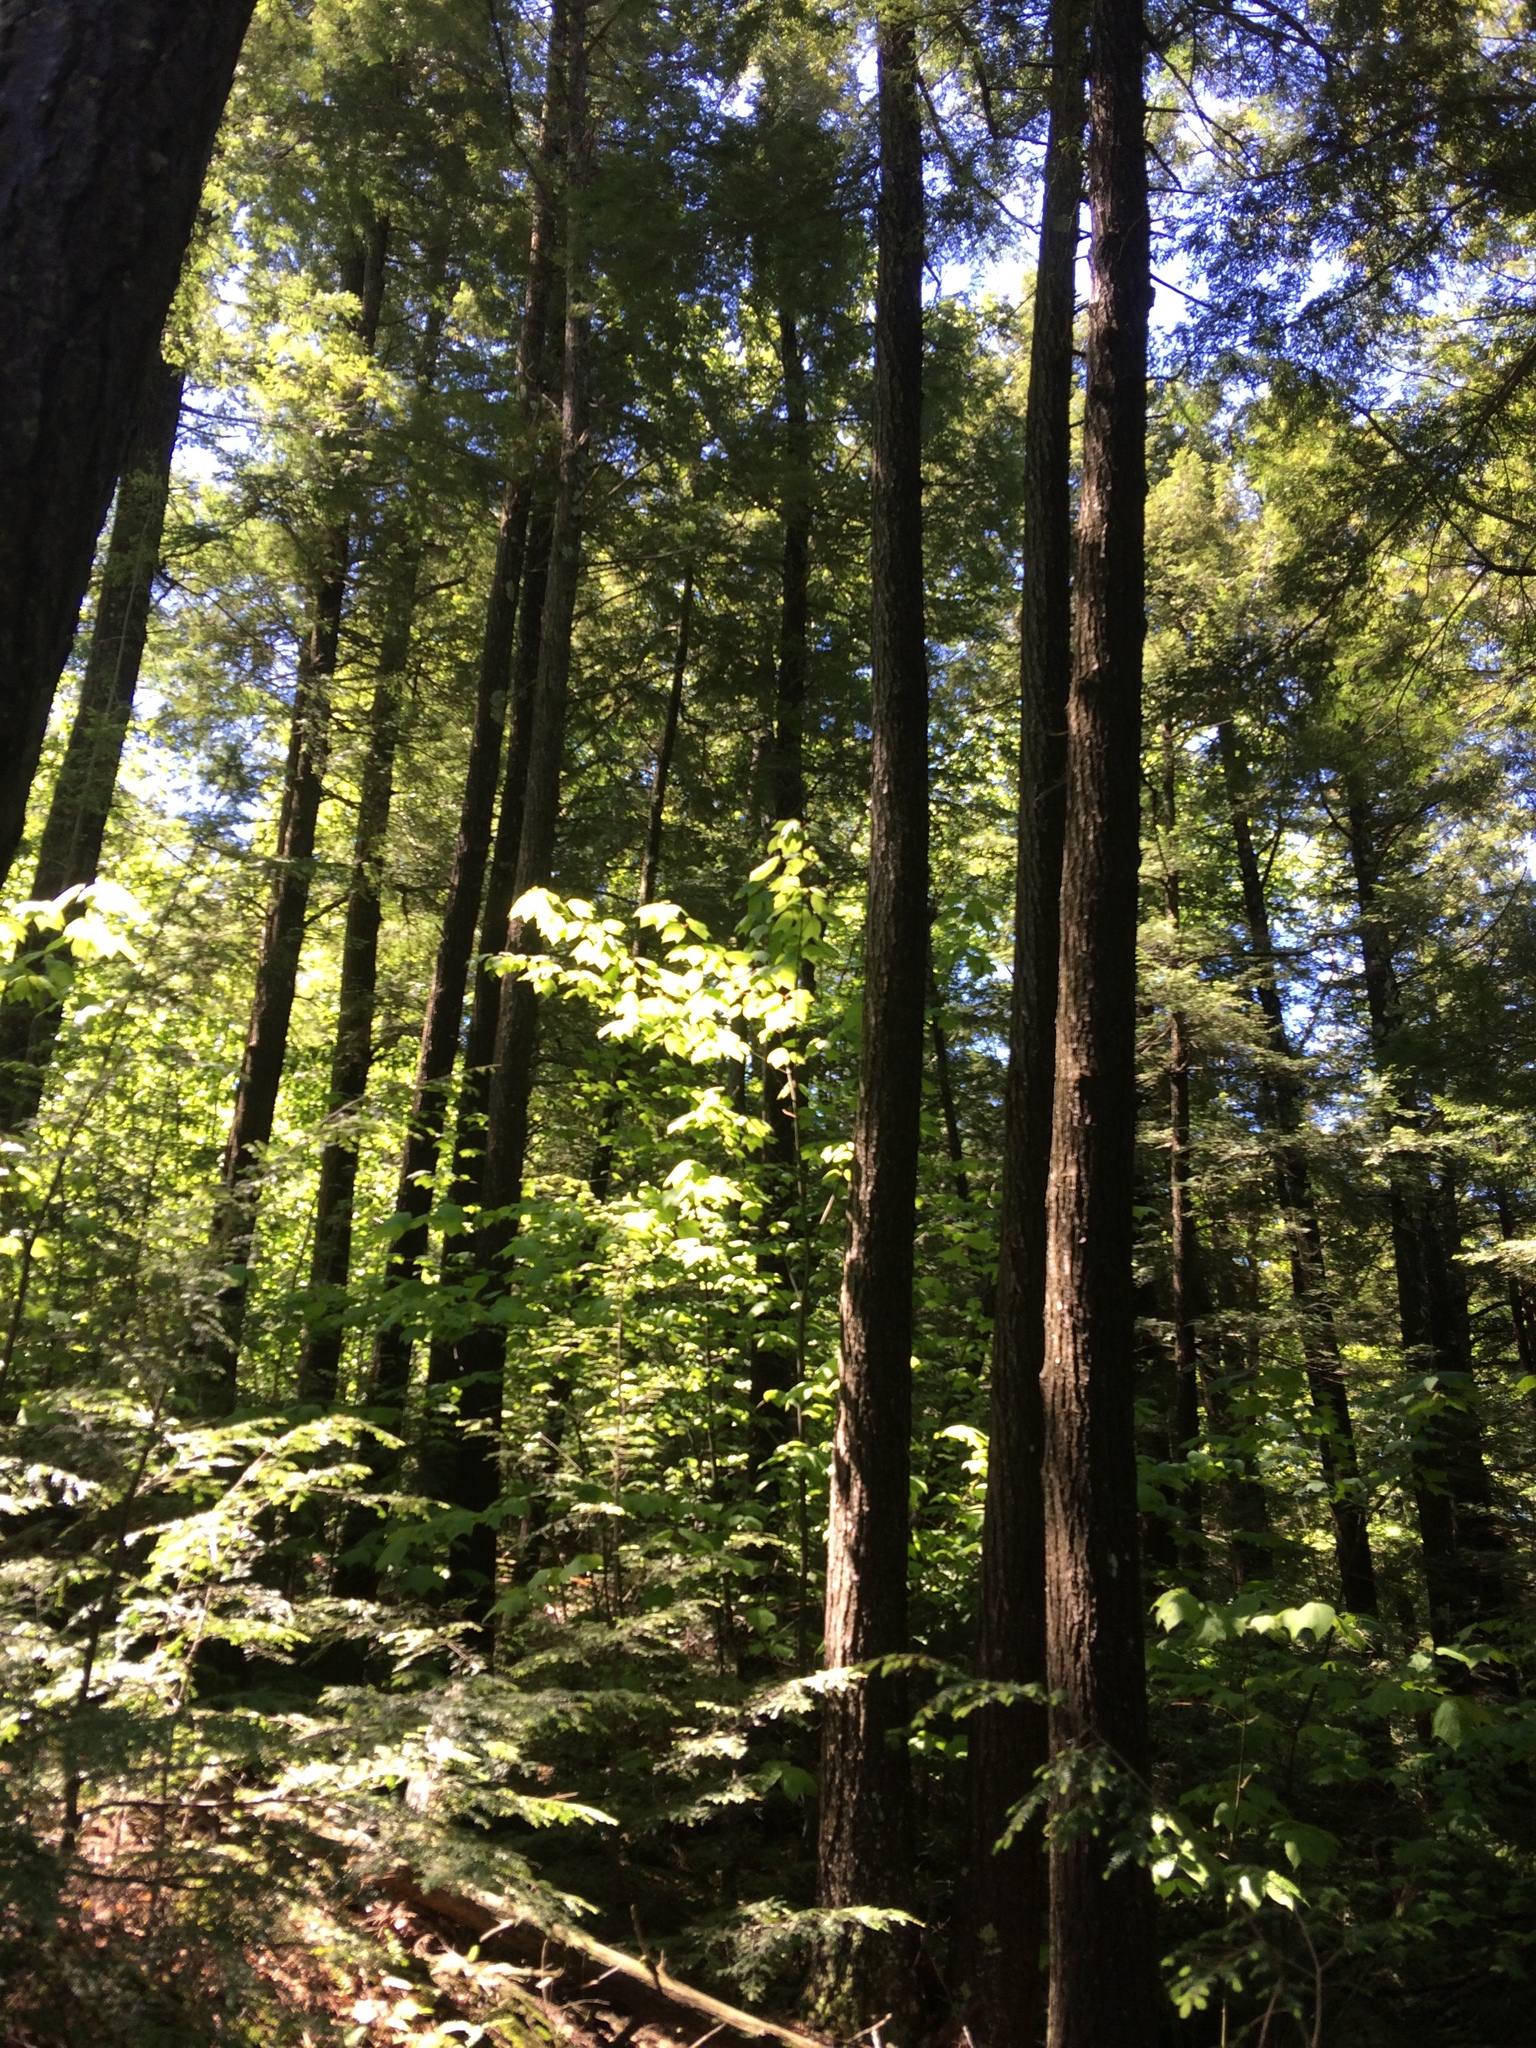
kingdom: Plantae
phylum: Tracheophyta
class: Pinopsida
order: Pinales
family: Pinaceae
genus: Tsuga
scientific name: Tsuga canadensis
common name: Eastern hemlock
